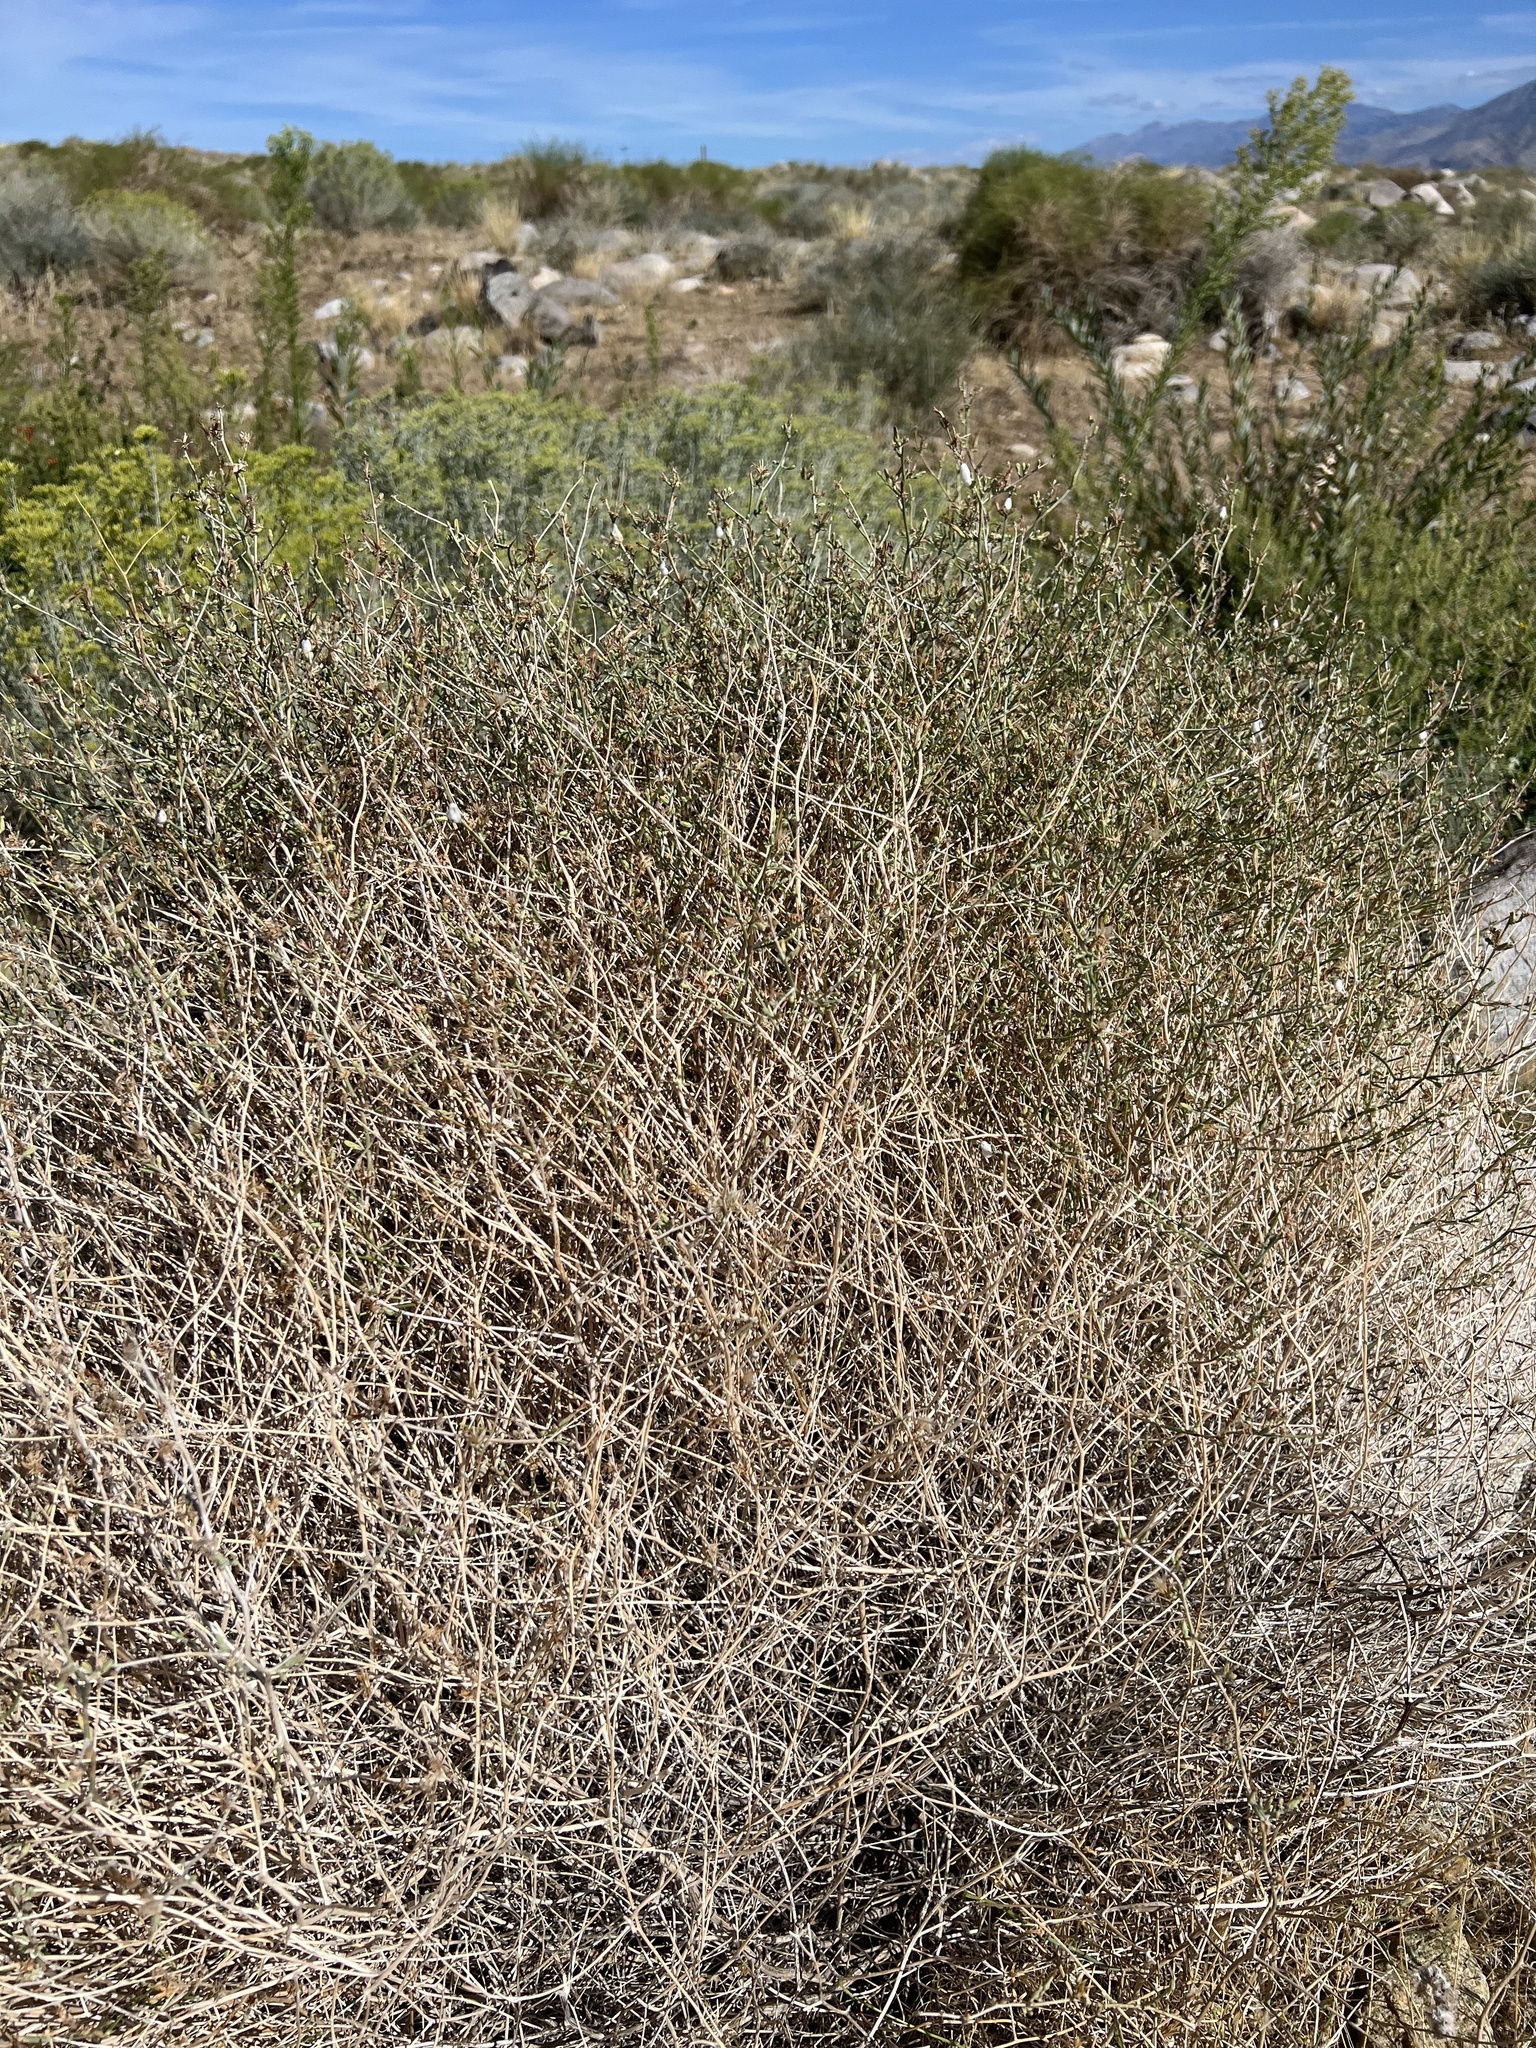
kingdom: Plantae
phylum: Tracheophyta
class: Magnoliopsida
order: Asterales
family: Asteraceae
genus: Stephanomeria
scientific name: Stephanomeria pauciflora
